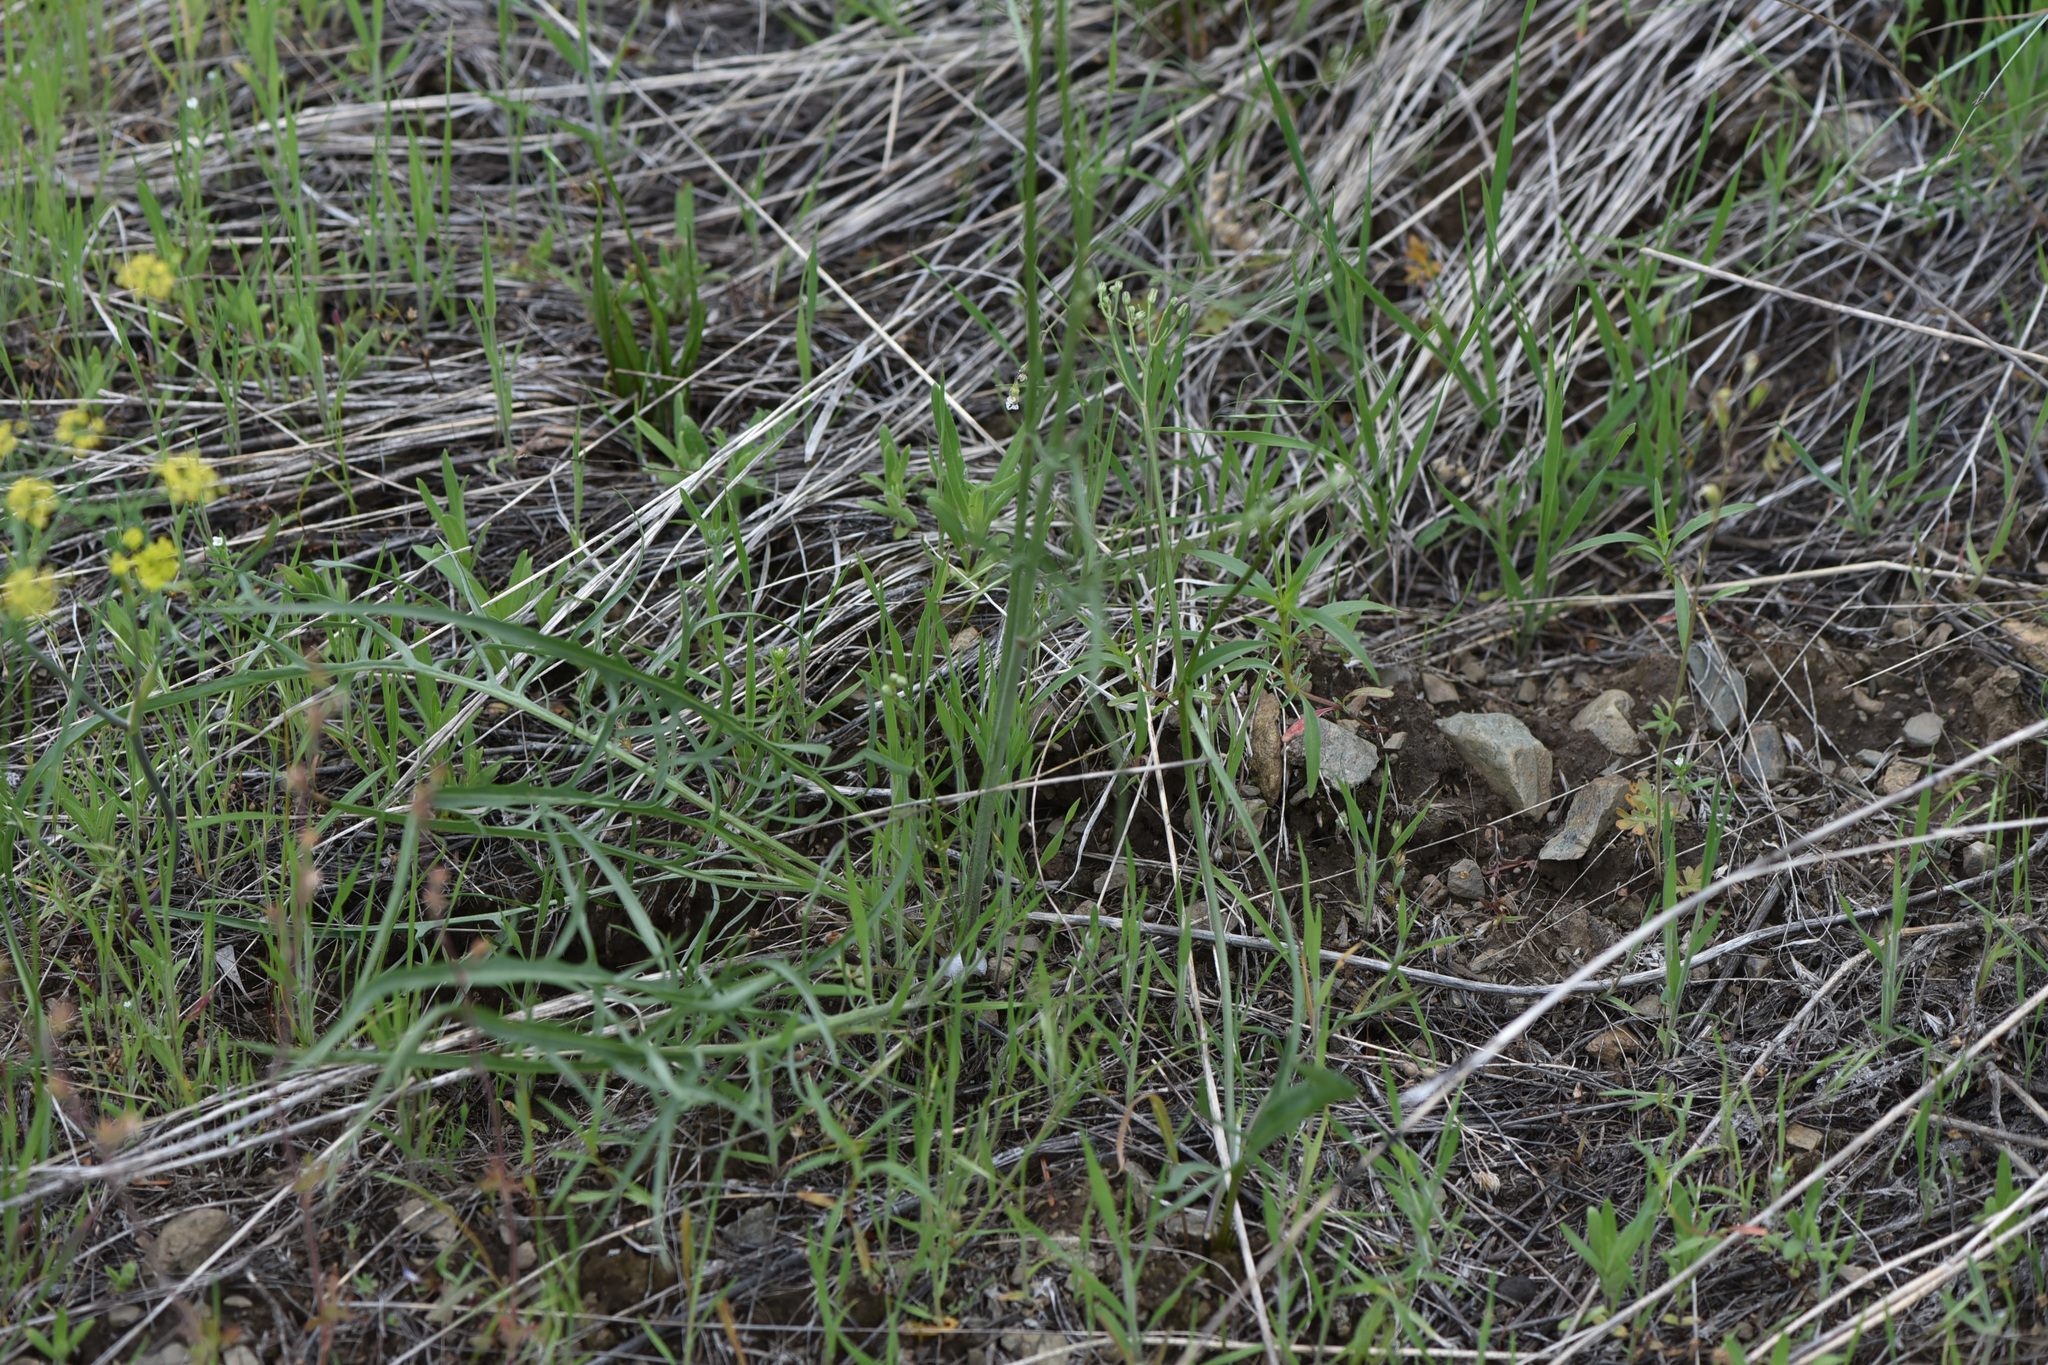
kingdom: Plantae
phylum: Tracheophyta
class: Magnoliopsida
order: Asterales
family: Asteraceae
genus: Crepis
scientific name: Crepis atribarba
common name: Dark hawk's-beard
